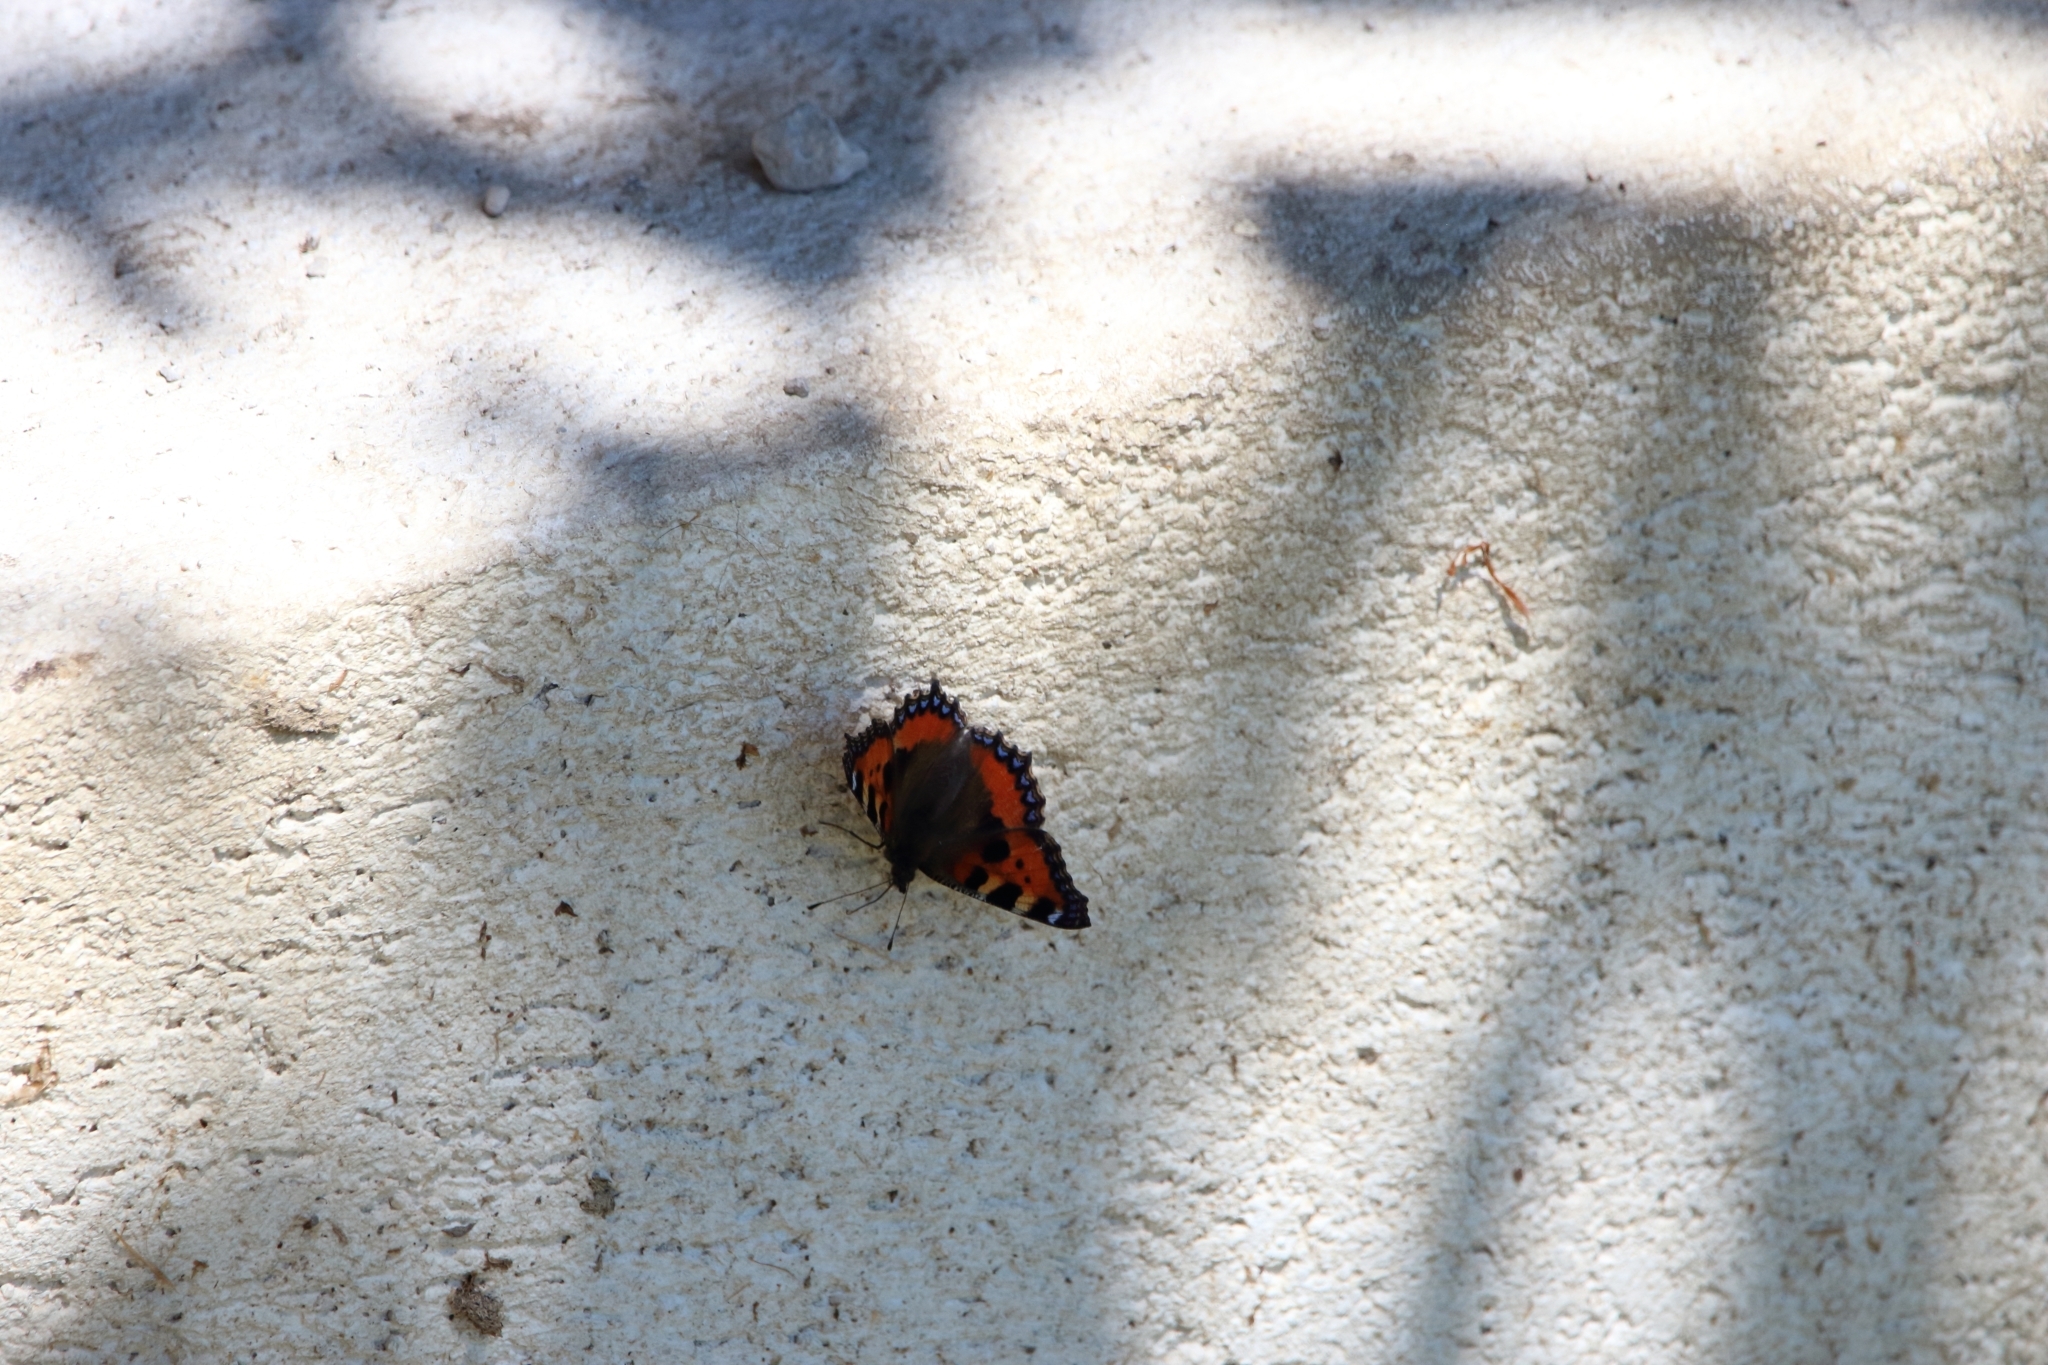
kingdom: Animalia
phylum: Arthropoda
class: Insecta
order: Lepidoptera
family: Nymphalidae
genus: Aglais
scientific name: Aglais urticae
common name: Small tortoiseshell
